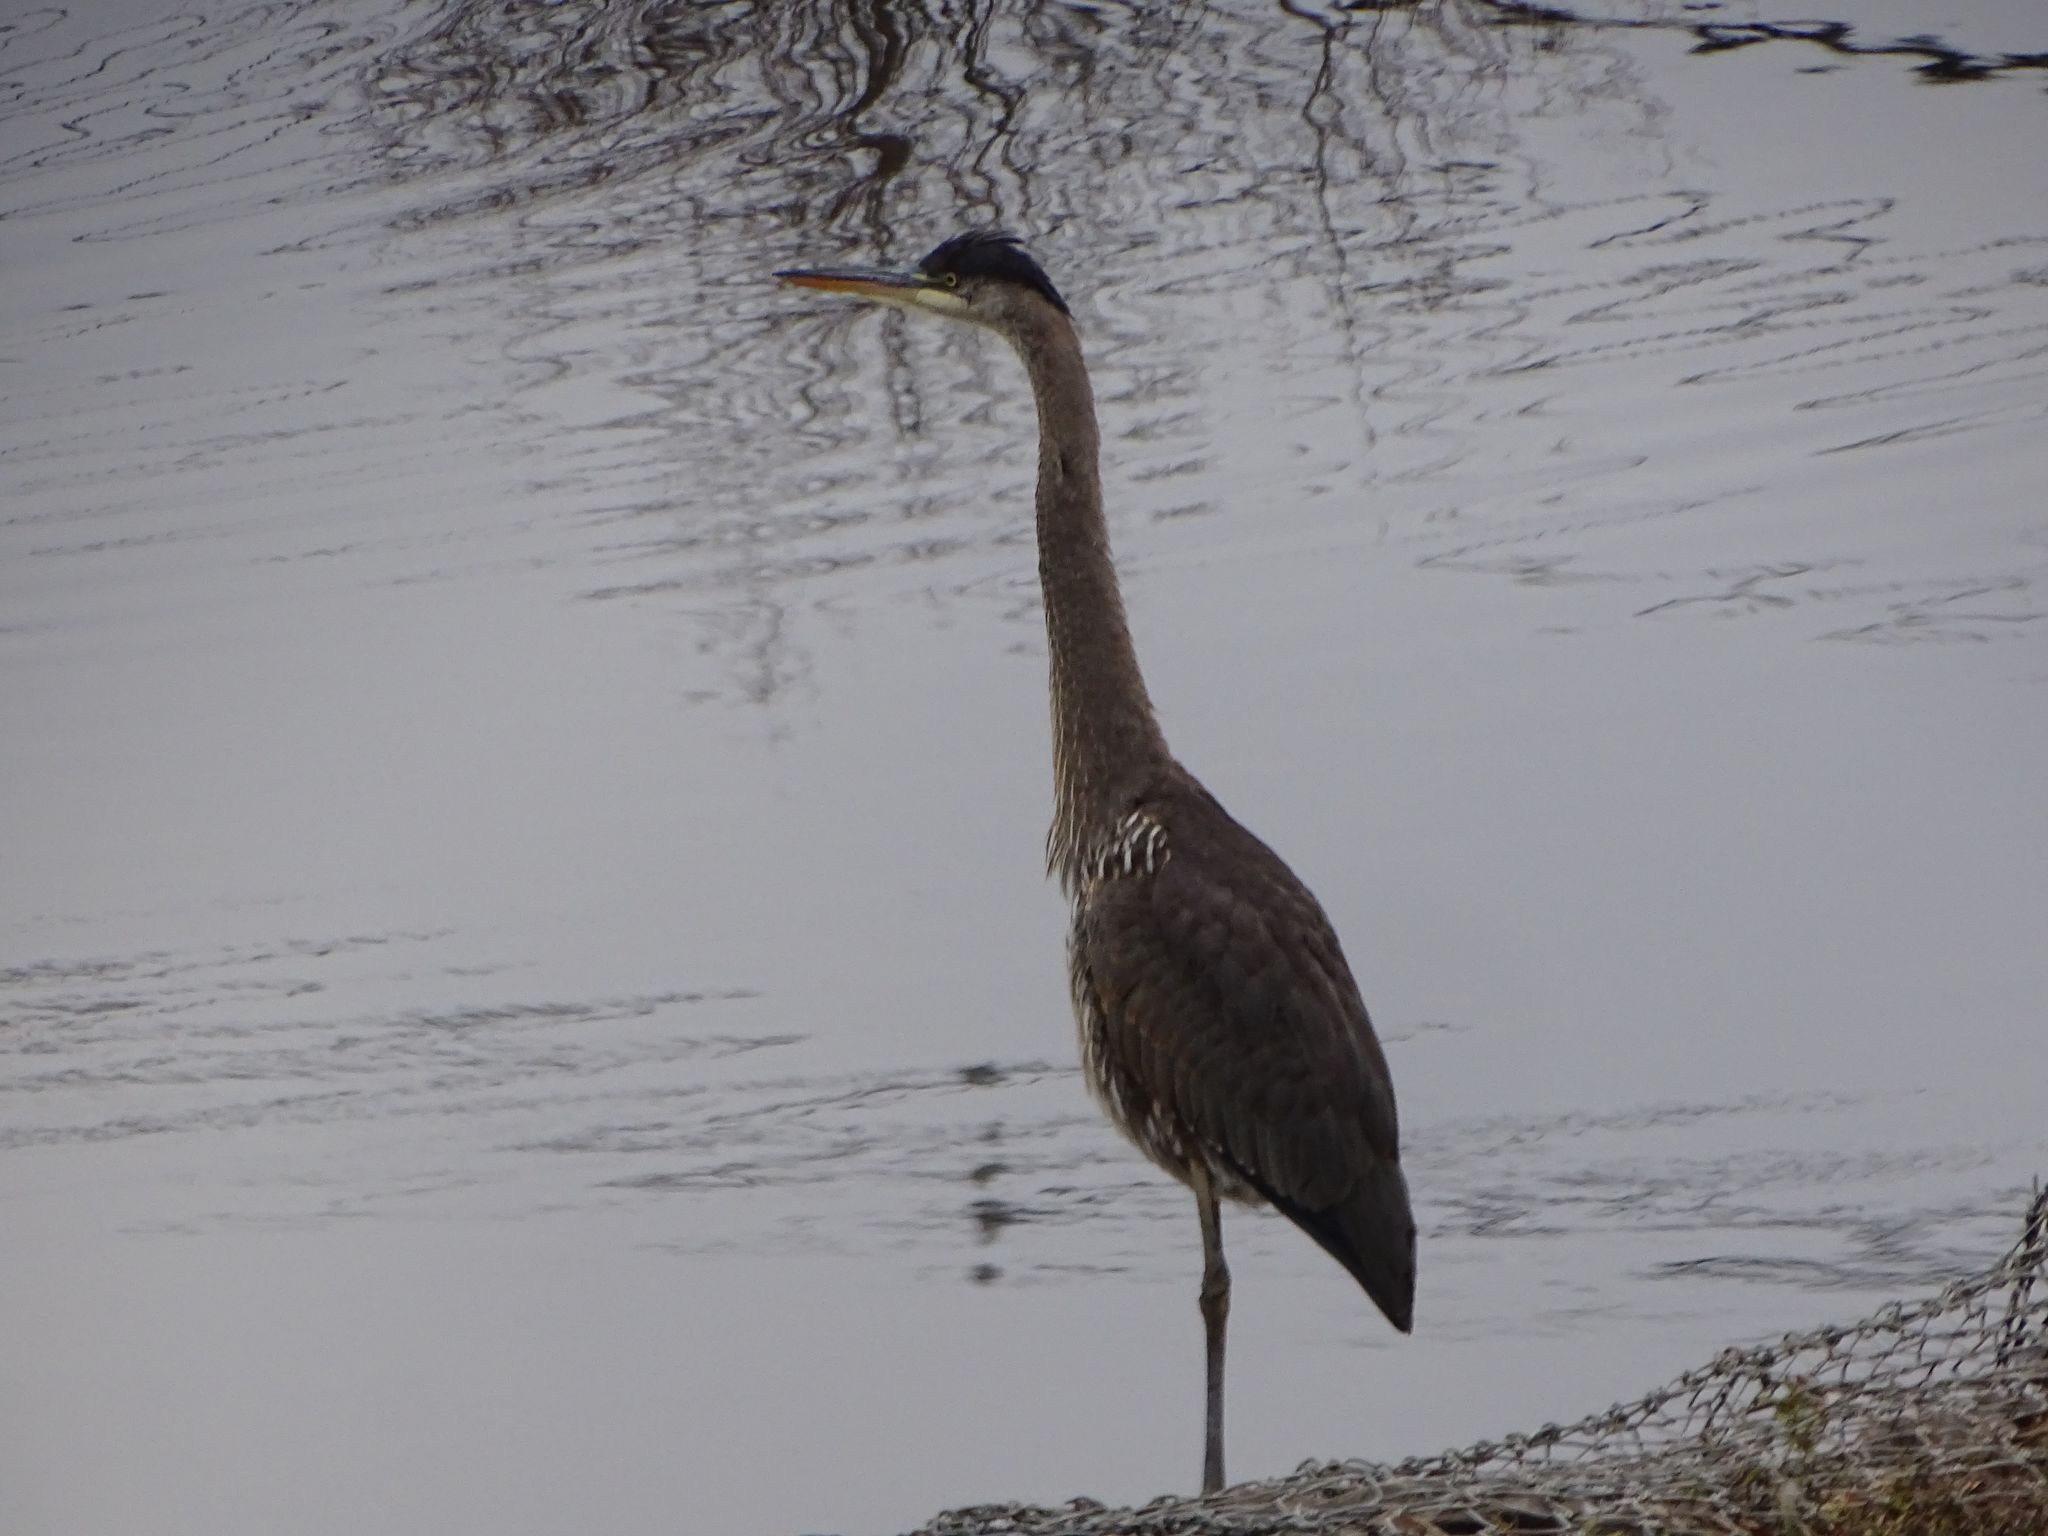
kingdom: Animalia
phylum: Chordata
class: Aves
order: Pelecaniformes
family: Ardeidae
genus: Ardea
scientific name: Ardea herodias
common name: Great blue heron
